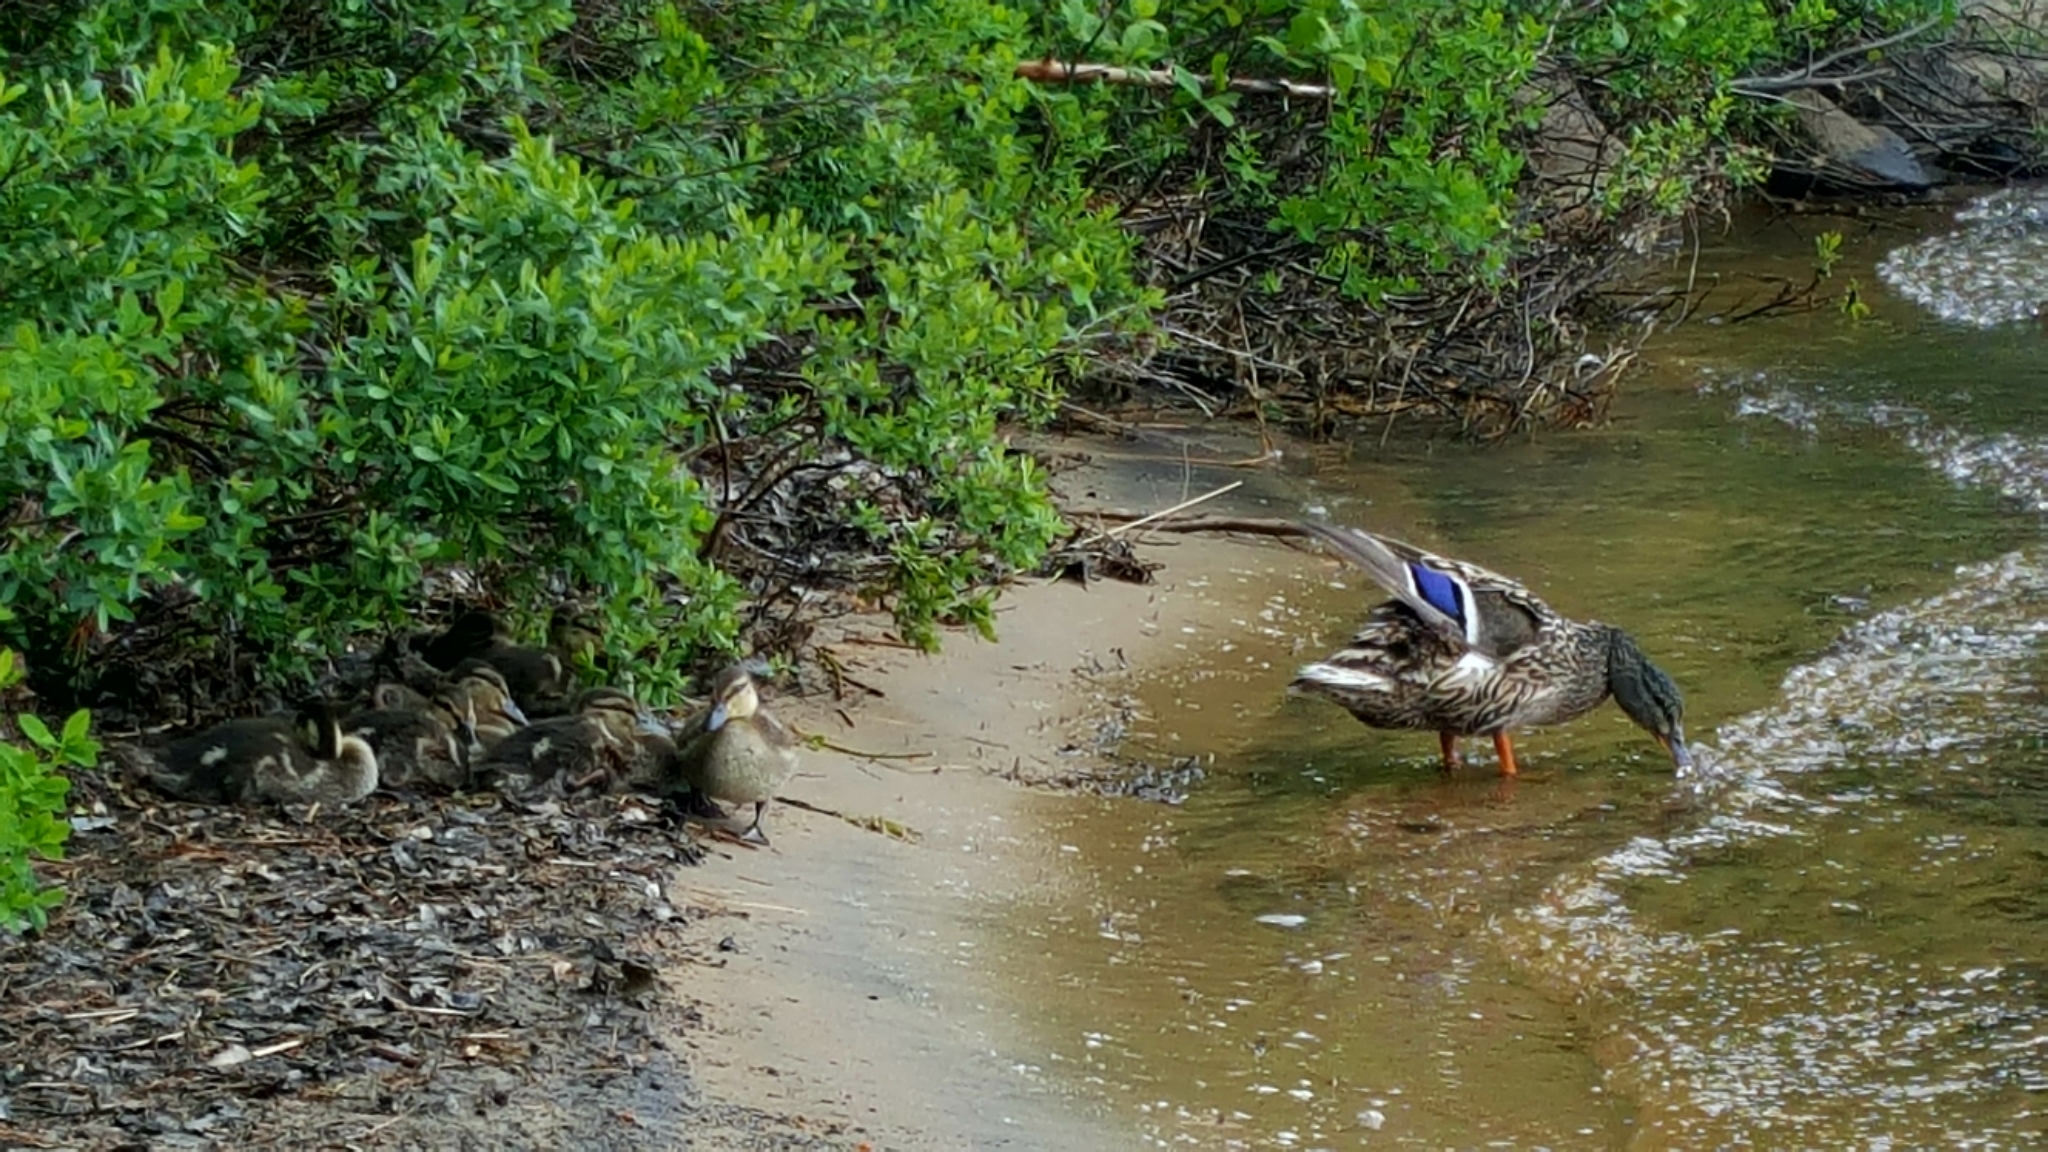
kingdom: Animalia
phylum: Chordata
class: Aves
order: Anseriformes
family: Anatidae
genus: Anas
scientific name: Anas platyrhynchos
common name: Mallard
